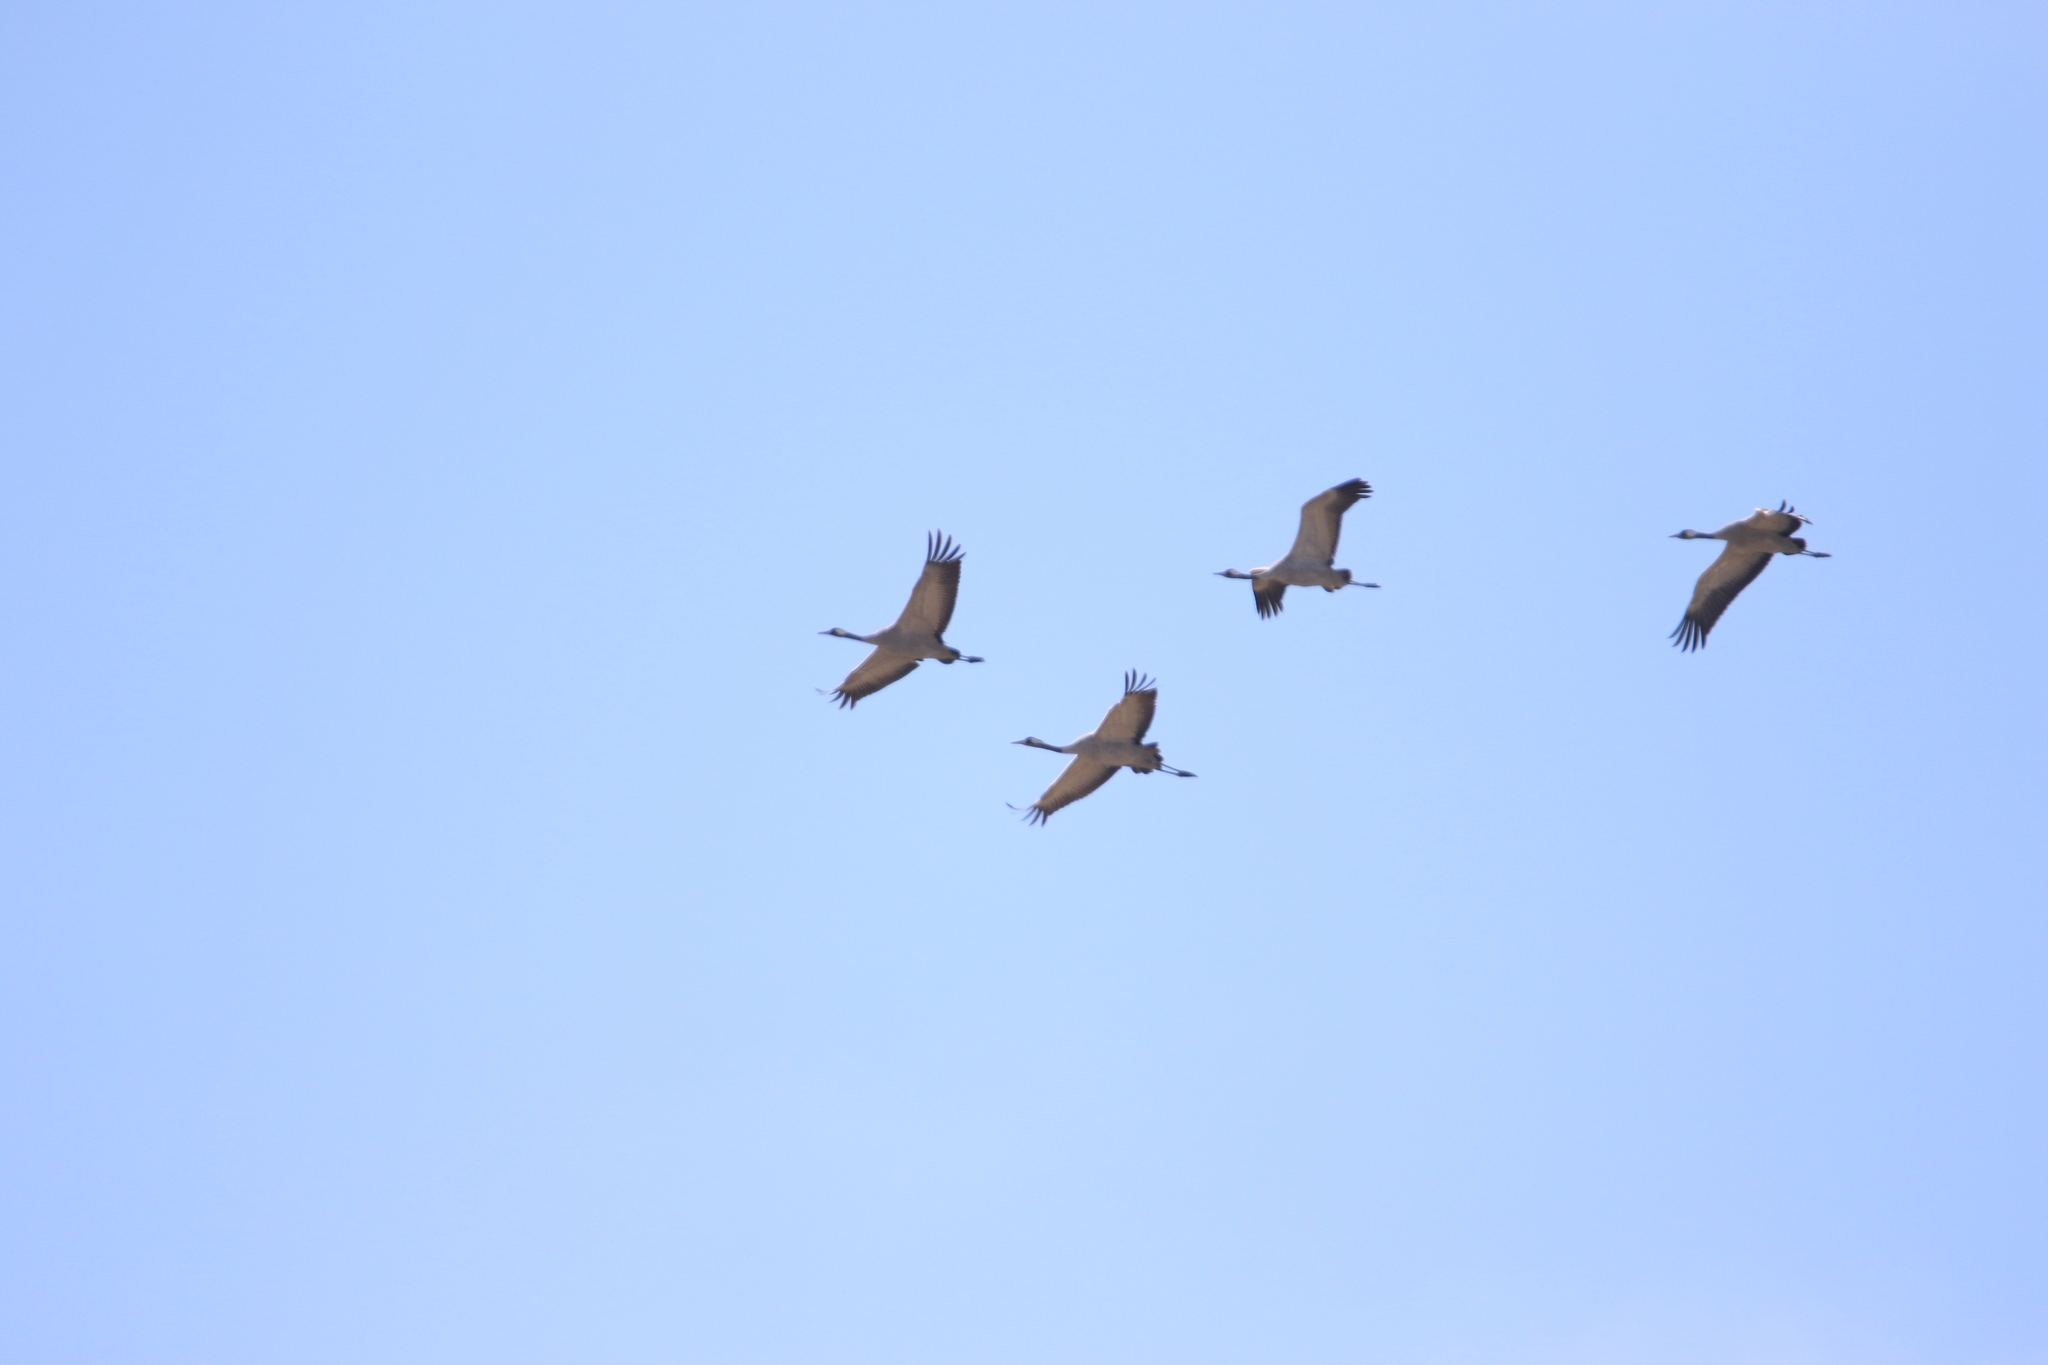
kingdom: Animalia
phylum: Chordata
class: Aves
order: Gruiformes
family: Gruidae
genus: Anthropoides
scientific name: Anthropoides virgo
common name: Demoiselle crane
